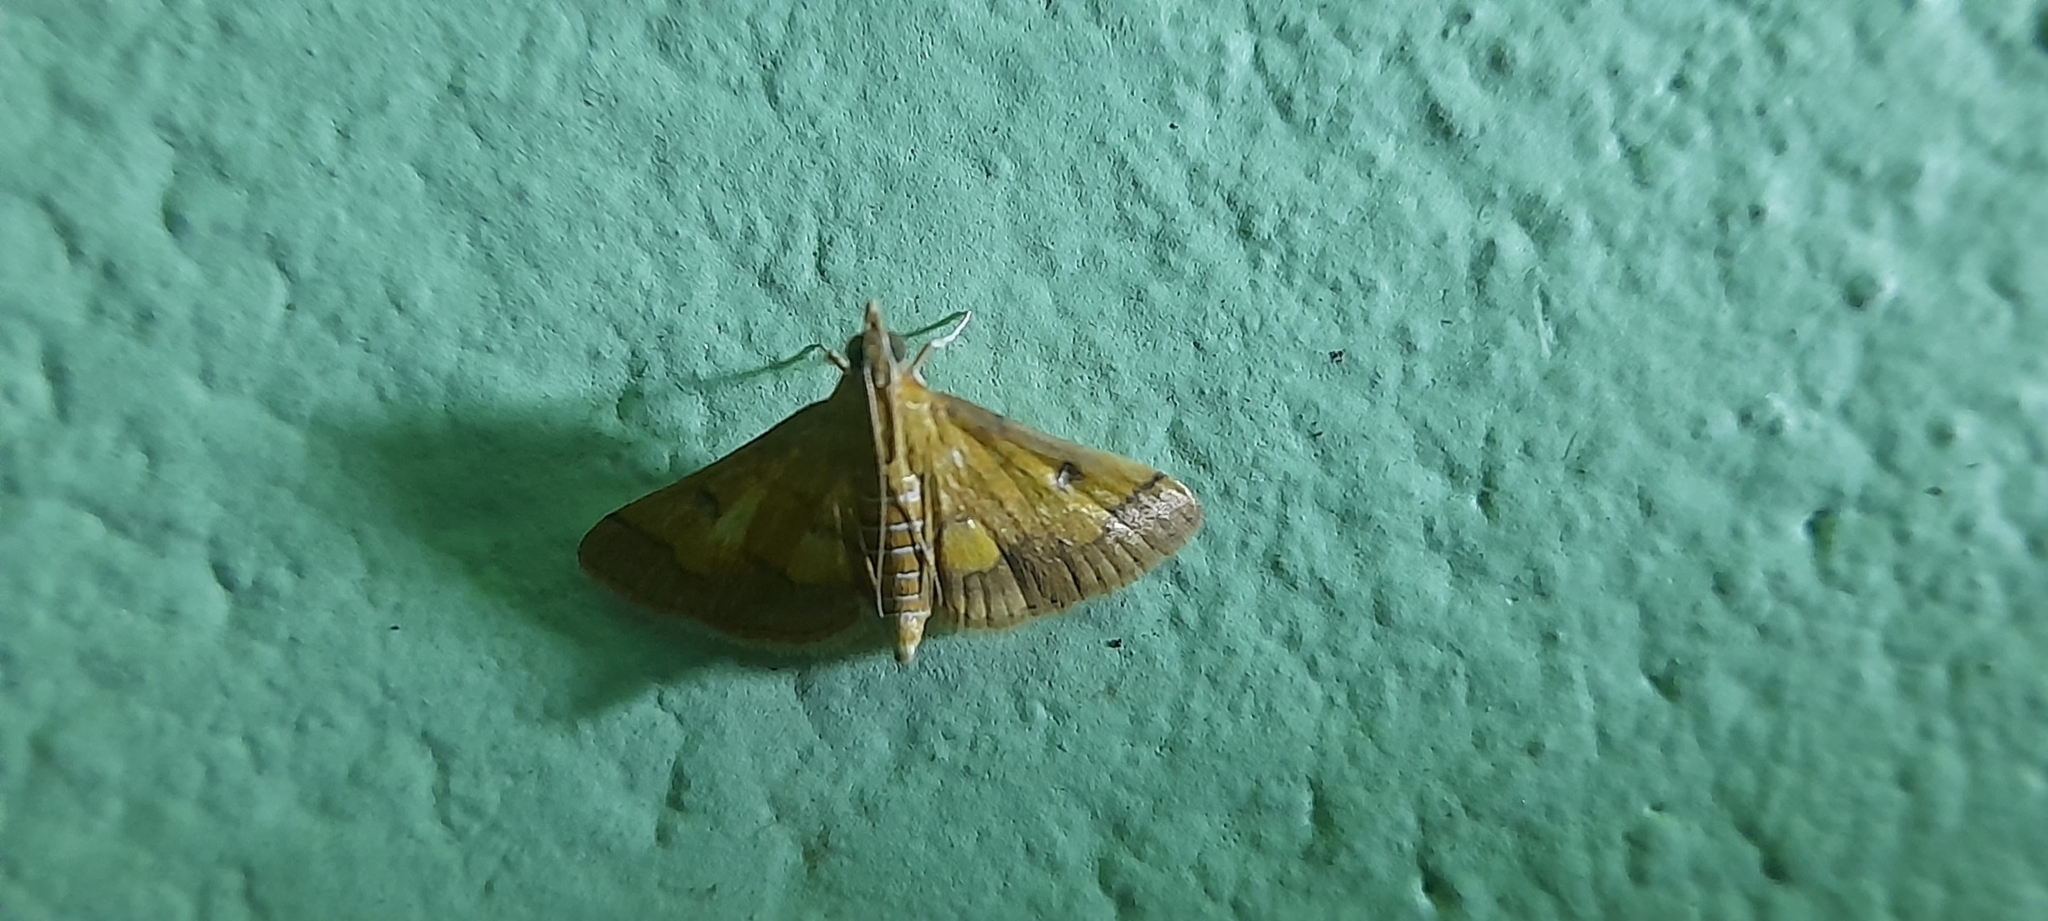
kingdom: Animalia
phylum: Arthropoda
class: Insecta
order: Lepidoptera
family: Crambidae
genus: Ischnurges
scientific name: Ischnurges luteomarginalis
